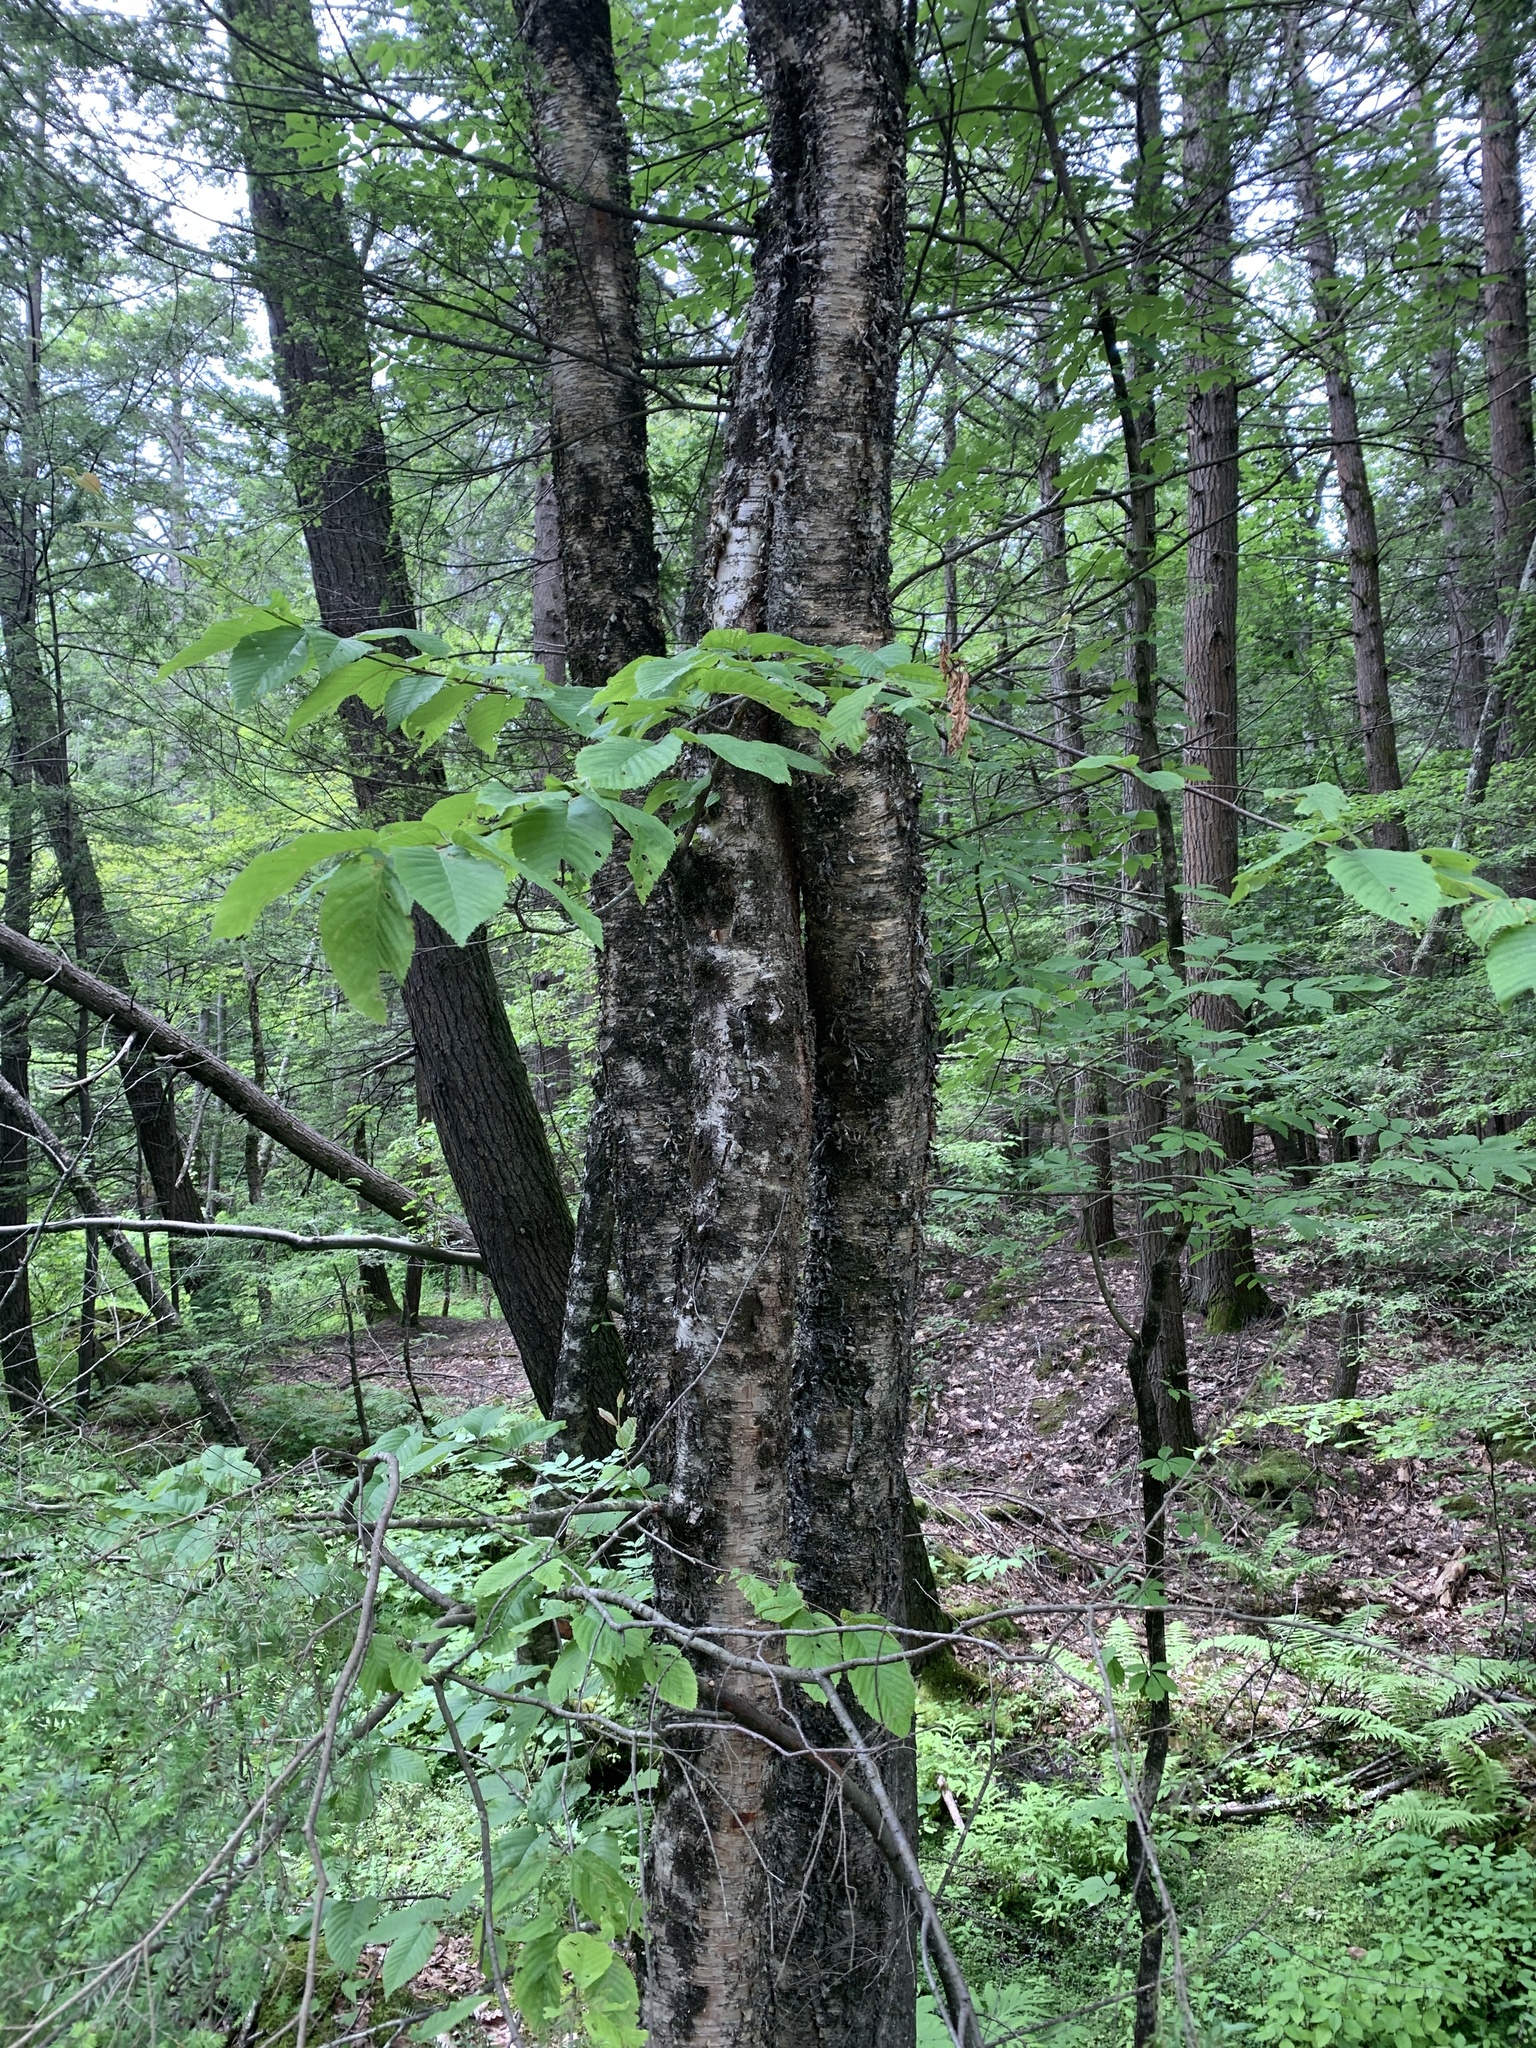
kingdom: Plantae
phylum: Tracheophyta
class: Magnoliopsida
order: Fagales
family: Betulaceae
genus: Betula
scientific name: Betula alleghaniensis
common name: Yellow birch
